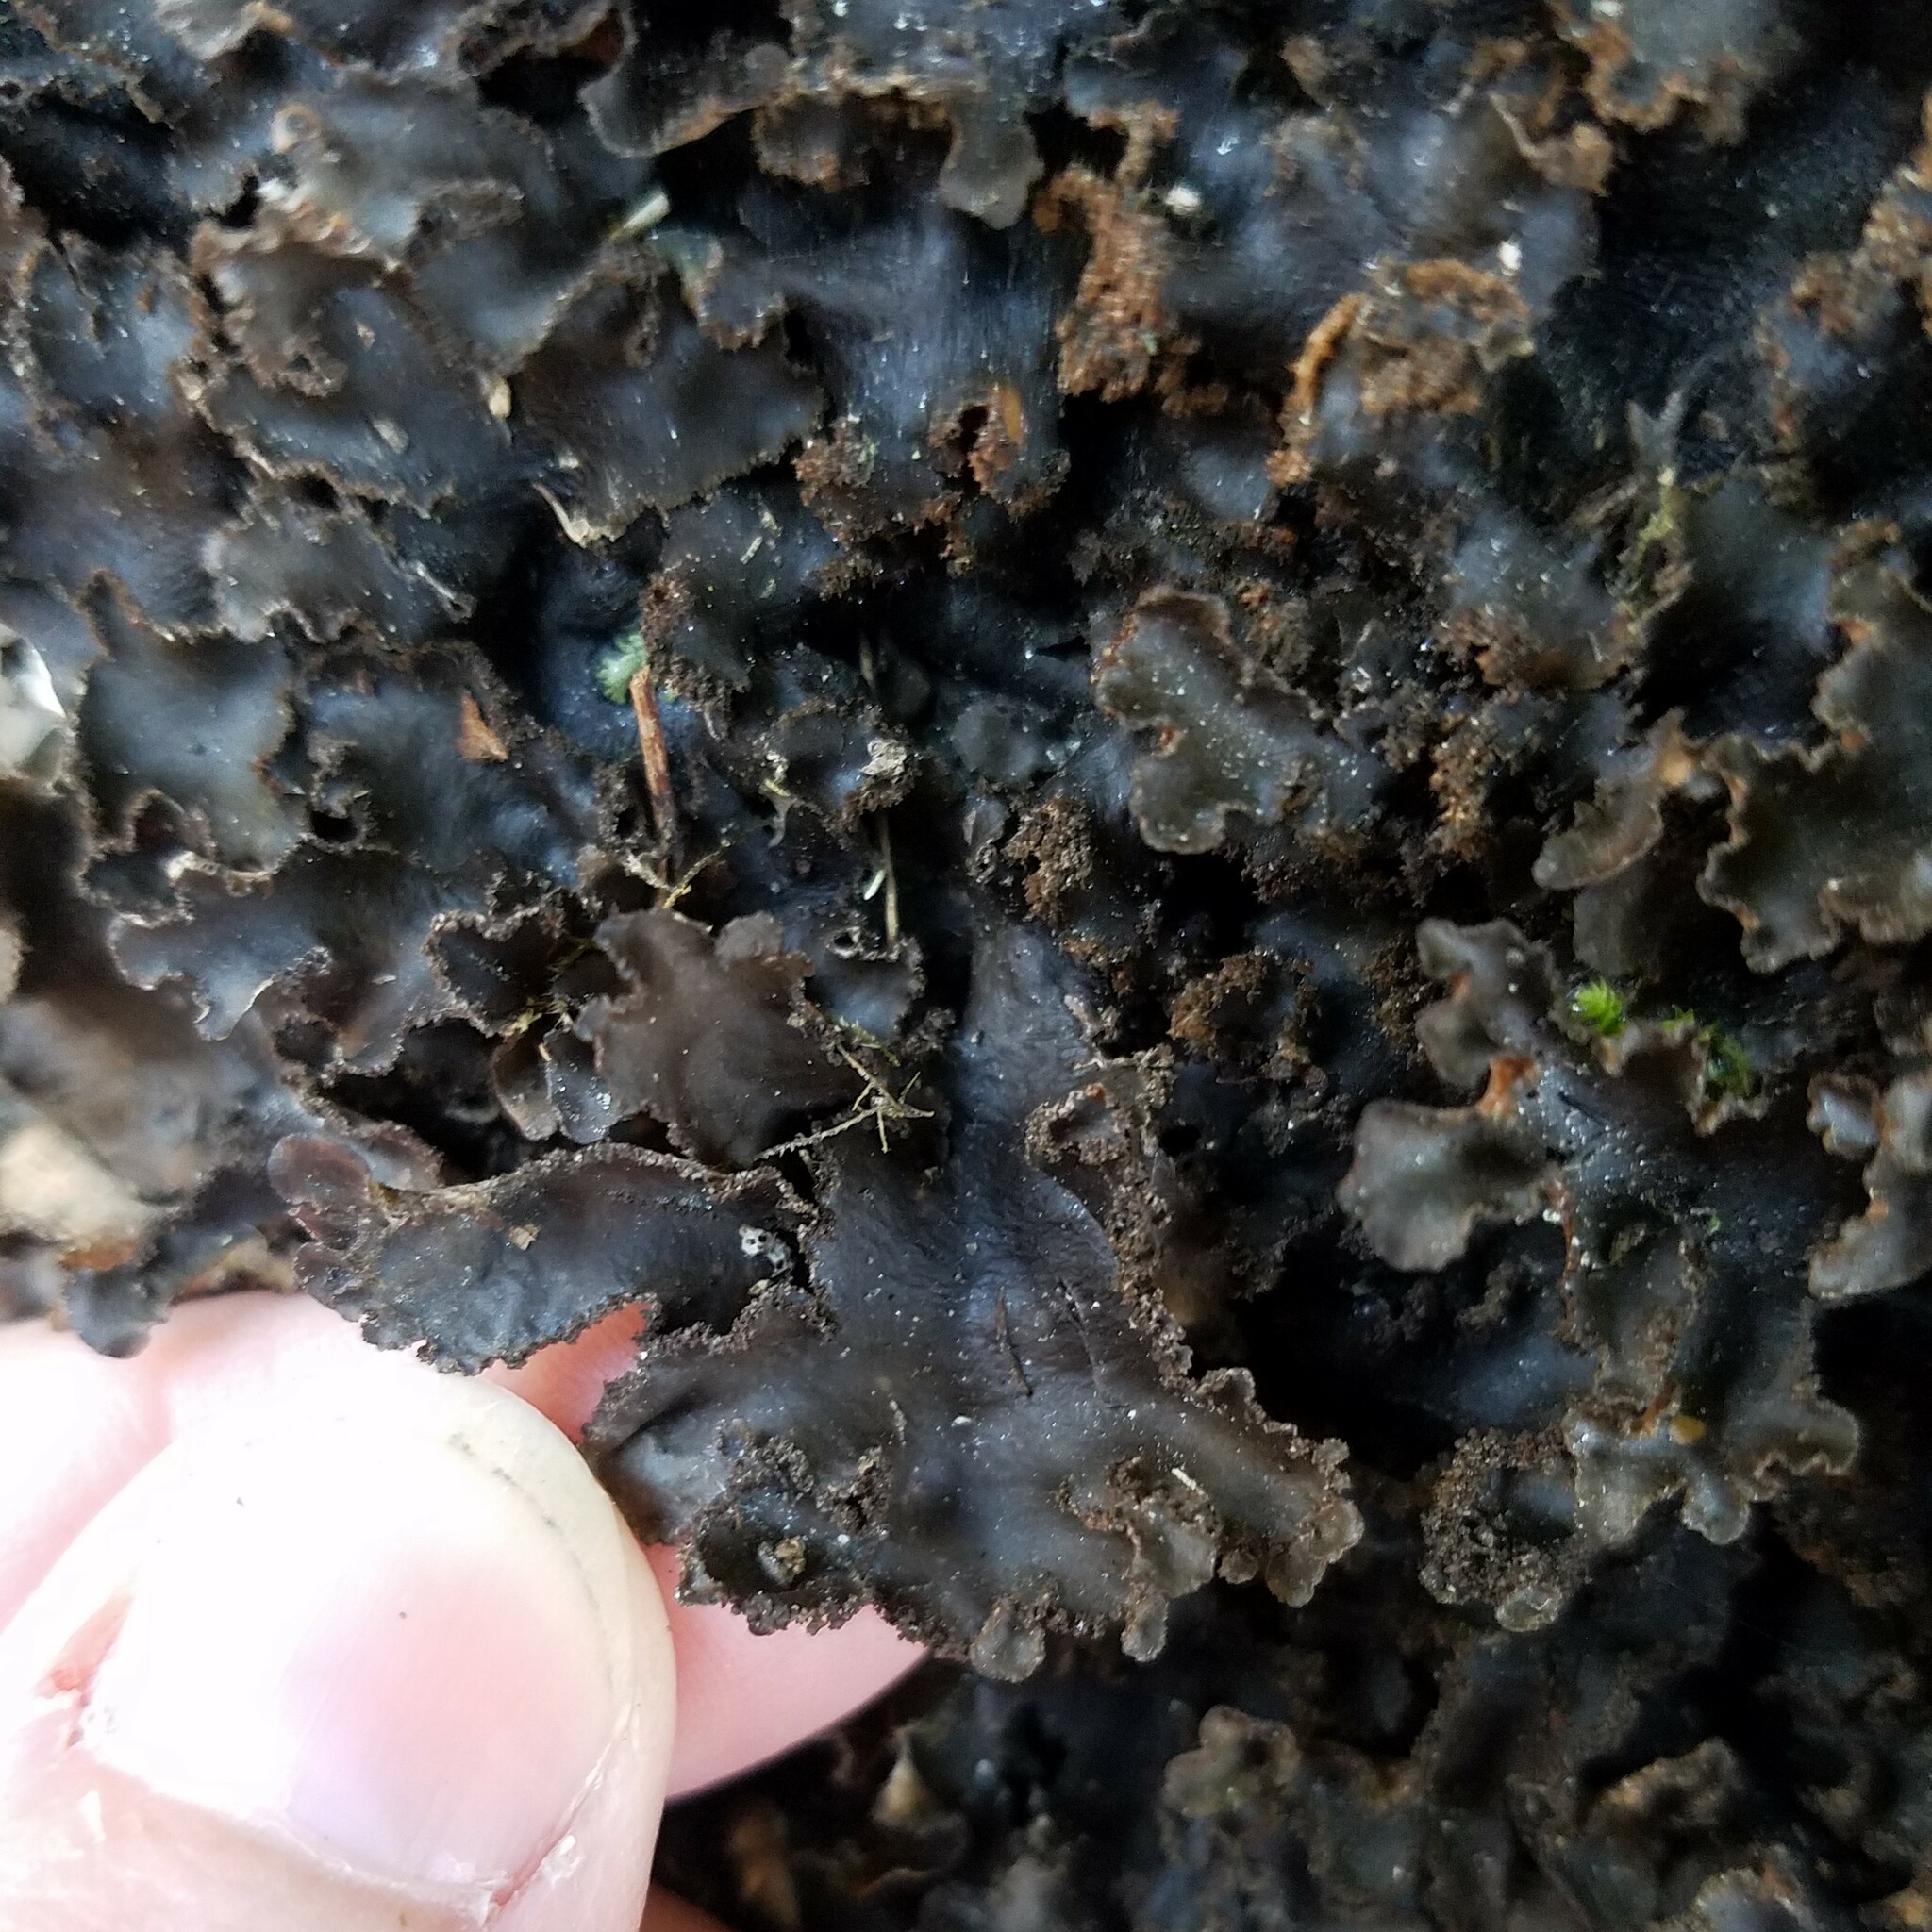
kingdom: Fungi
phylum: Ascomycota
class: Lecanoromycetes
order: Peltigerales
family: Lobariaceae
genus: Sticta
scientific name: Sticta beauvoisii
